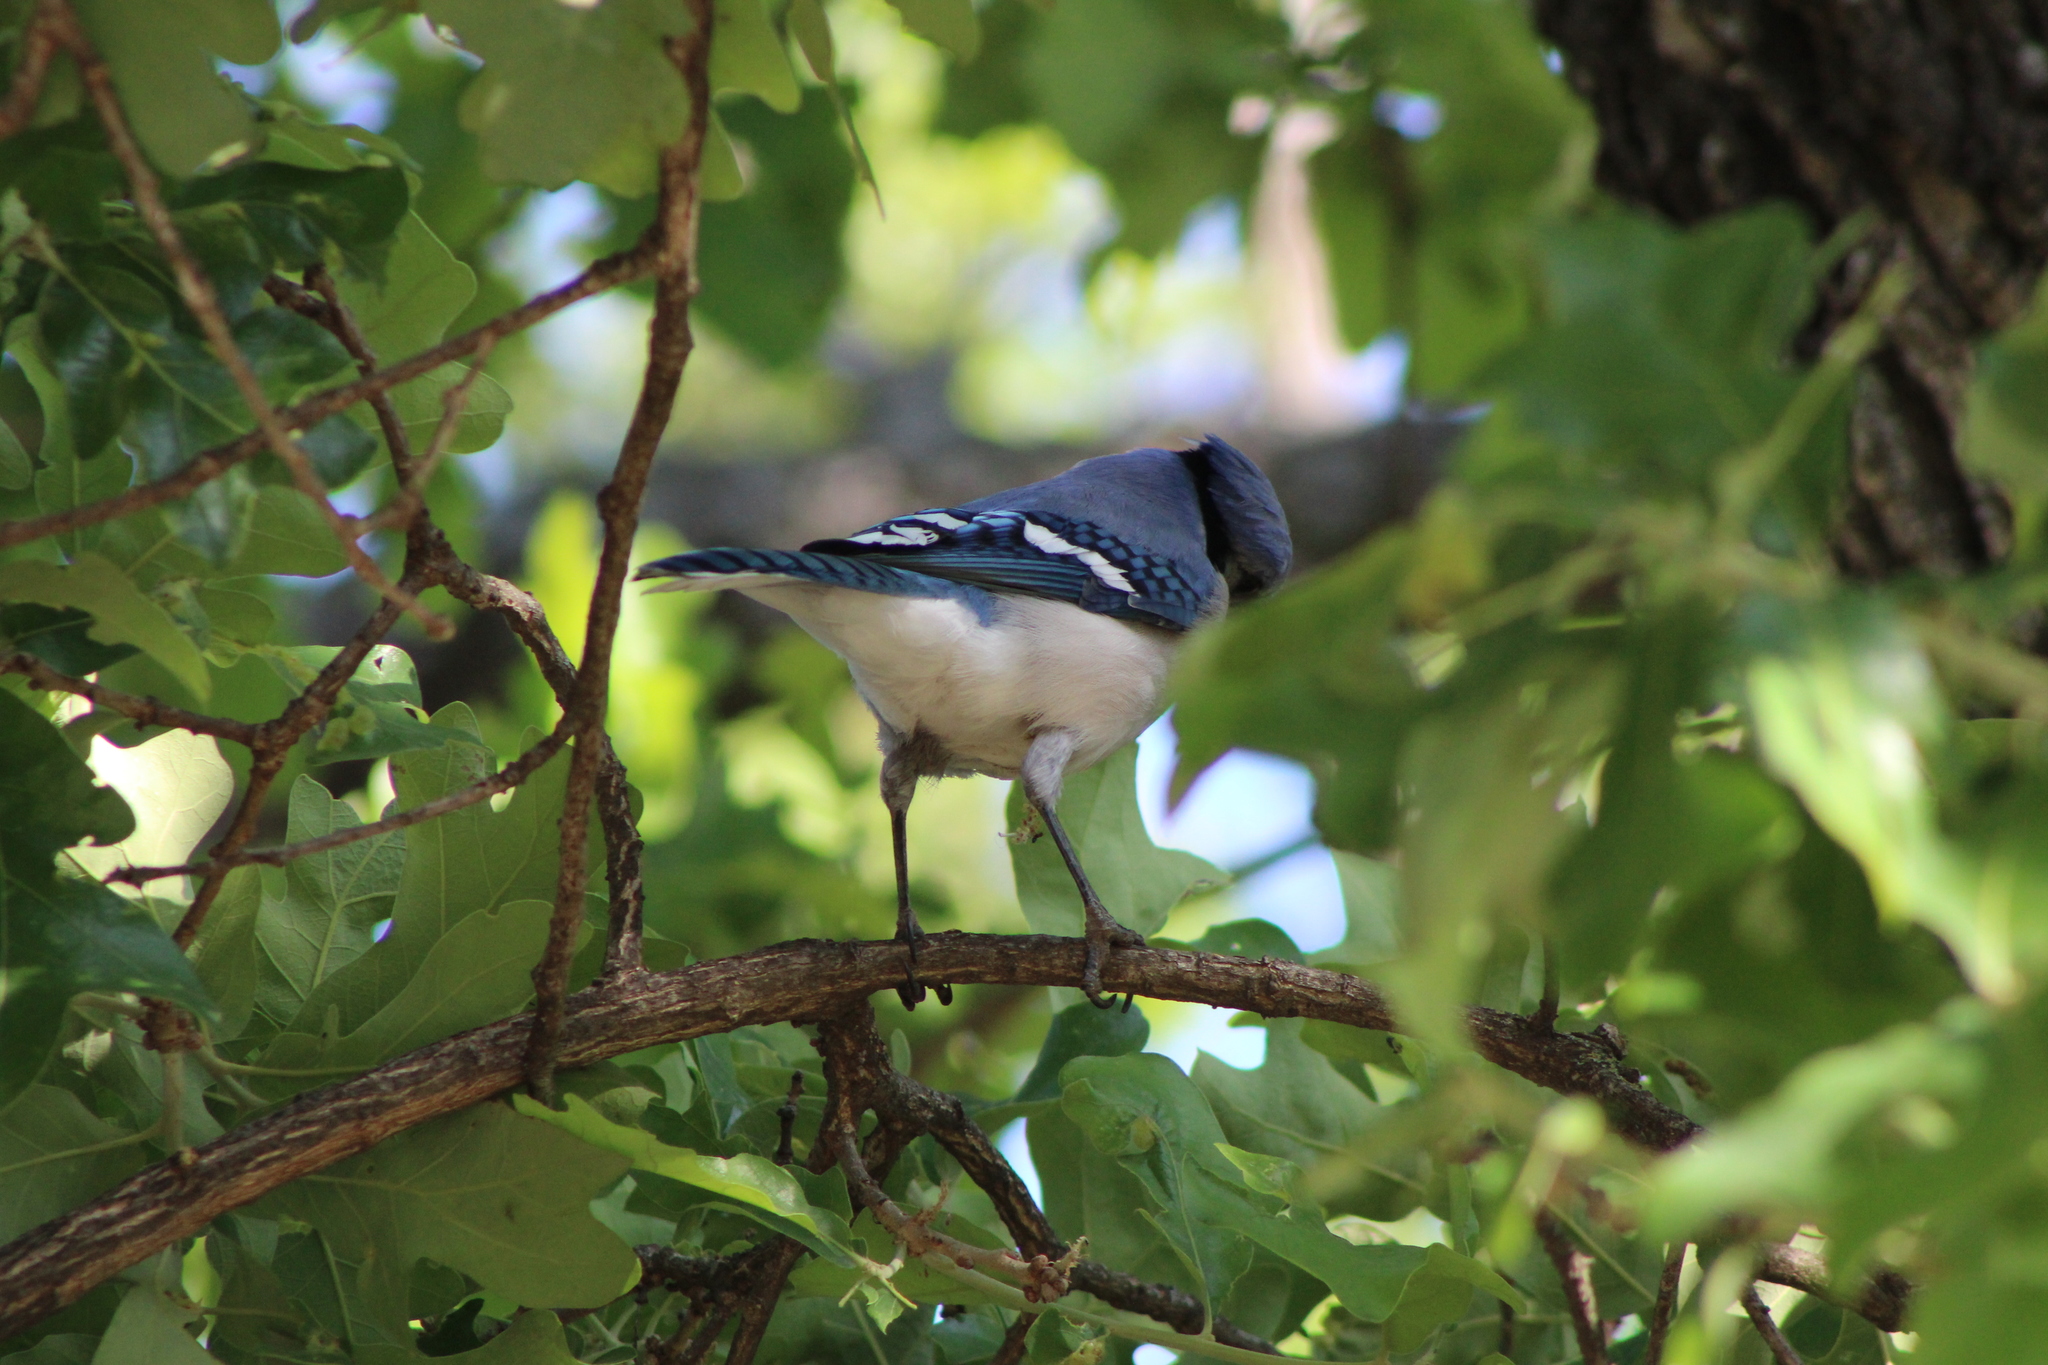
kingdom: Animalia
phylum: Chordata
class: Aves
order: Passeriformes
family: Corvidae
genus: Cyanocitta
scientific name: Cyanocitta cristata
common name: Blue jay
